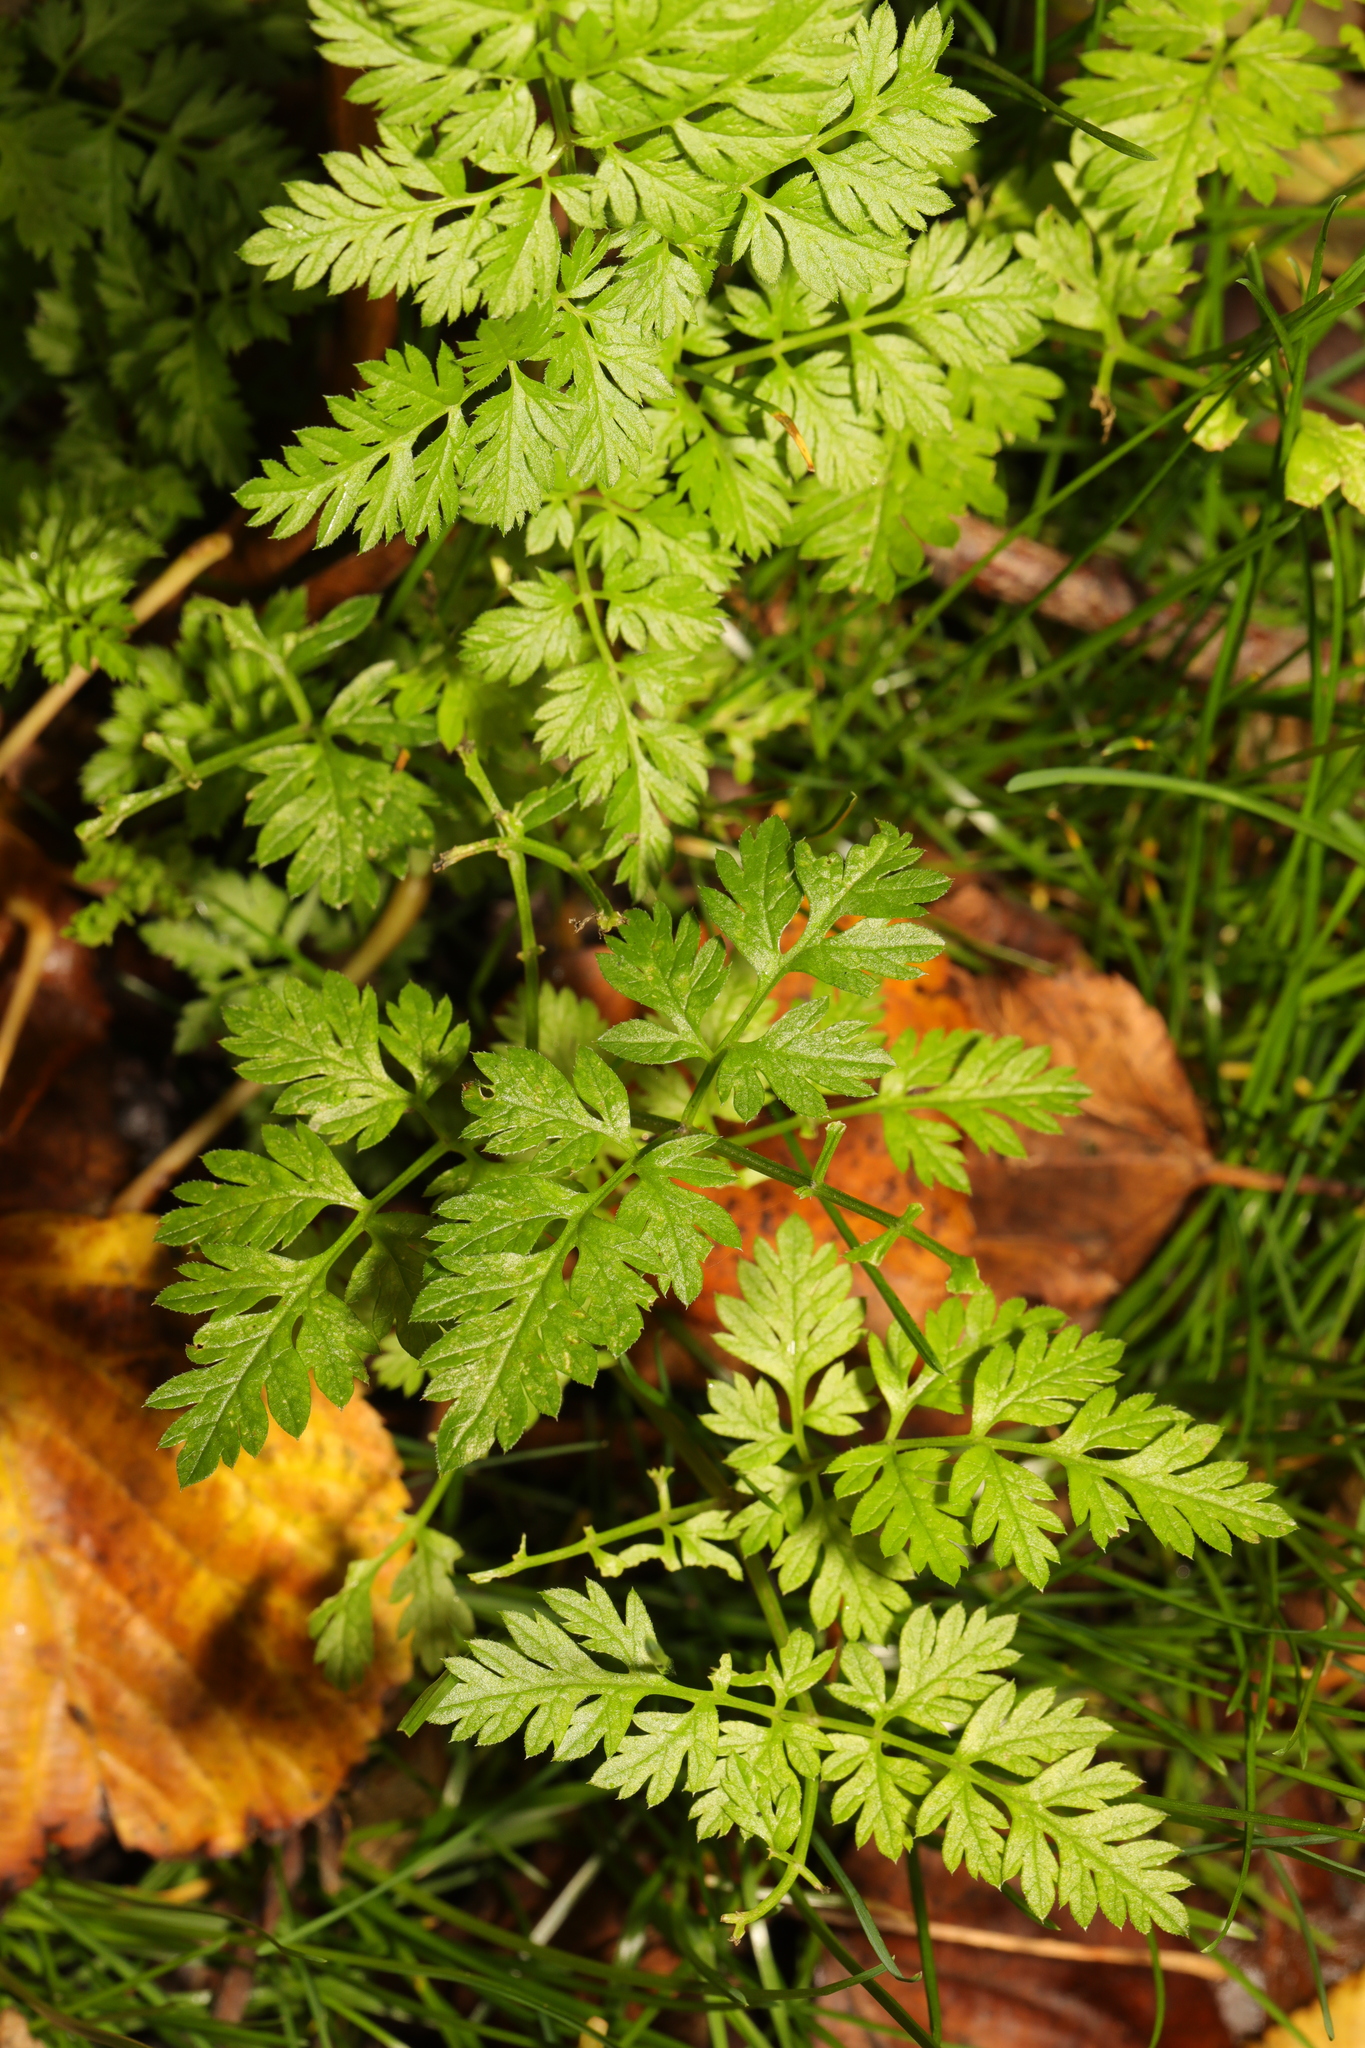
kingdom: Plantae
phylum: Tracheophyta
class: Magnoliopsida
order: Apiales
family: Apiaceae
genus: Anthriscus
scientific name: Anthriscus sylvestris
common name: Cow parsley
